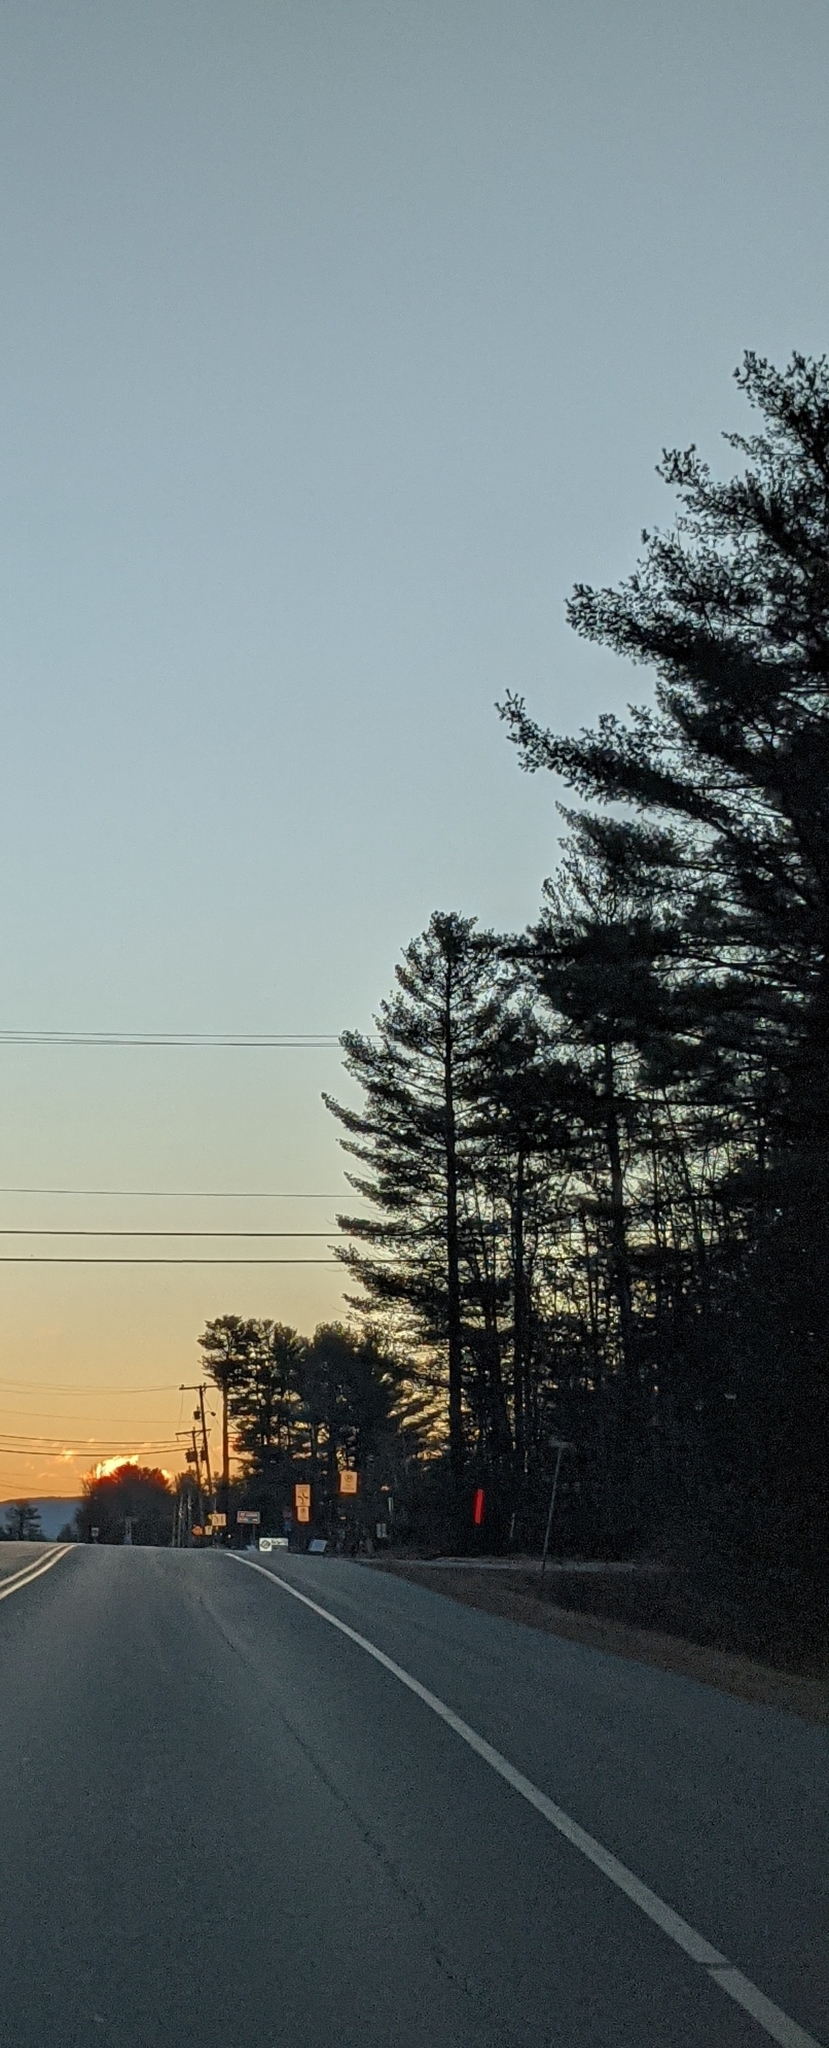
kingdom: Plantae
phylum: Tracheophyta
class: Pinopsida
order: Pinales
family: Pinaceae
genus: Pinus
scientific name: Pinus strobus
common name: Weymouth pine
